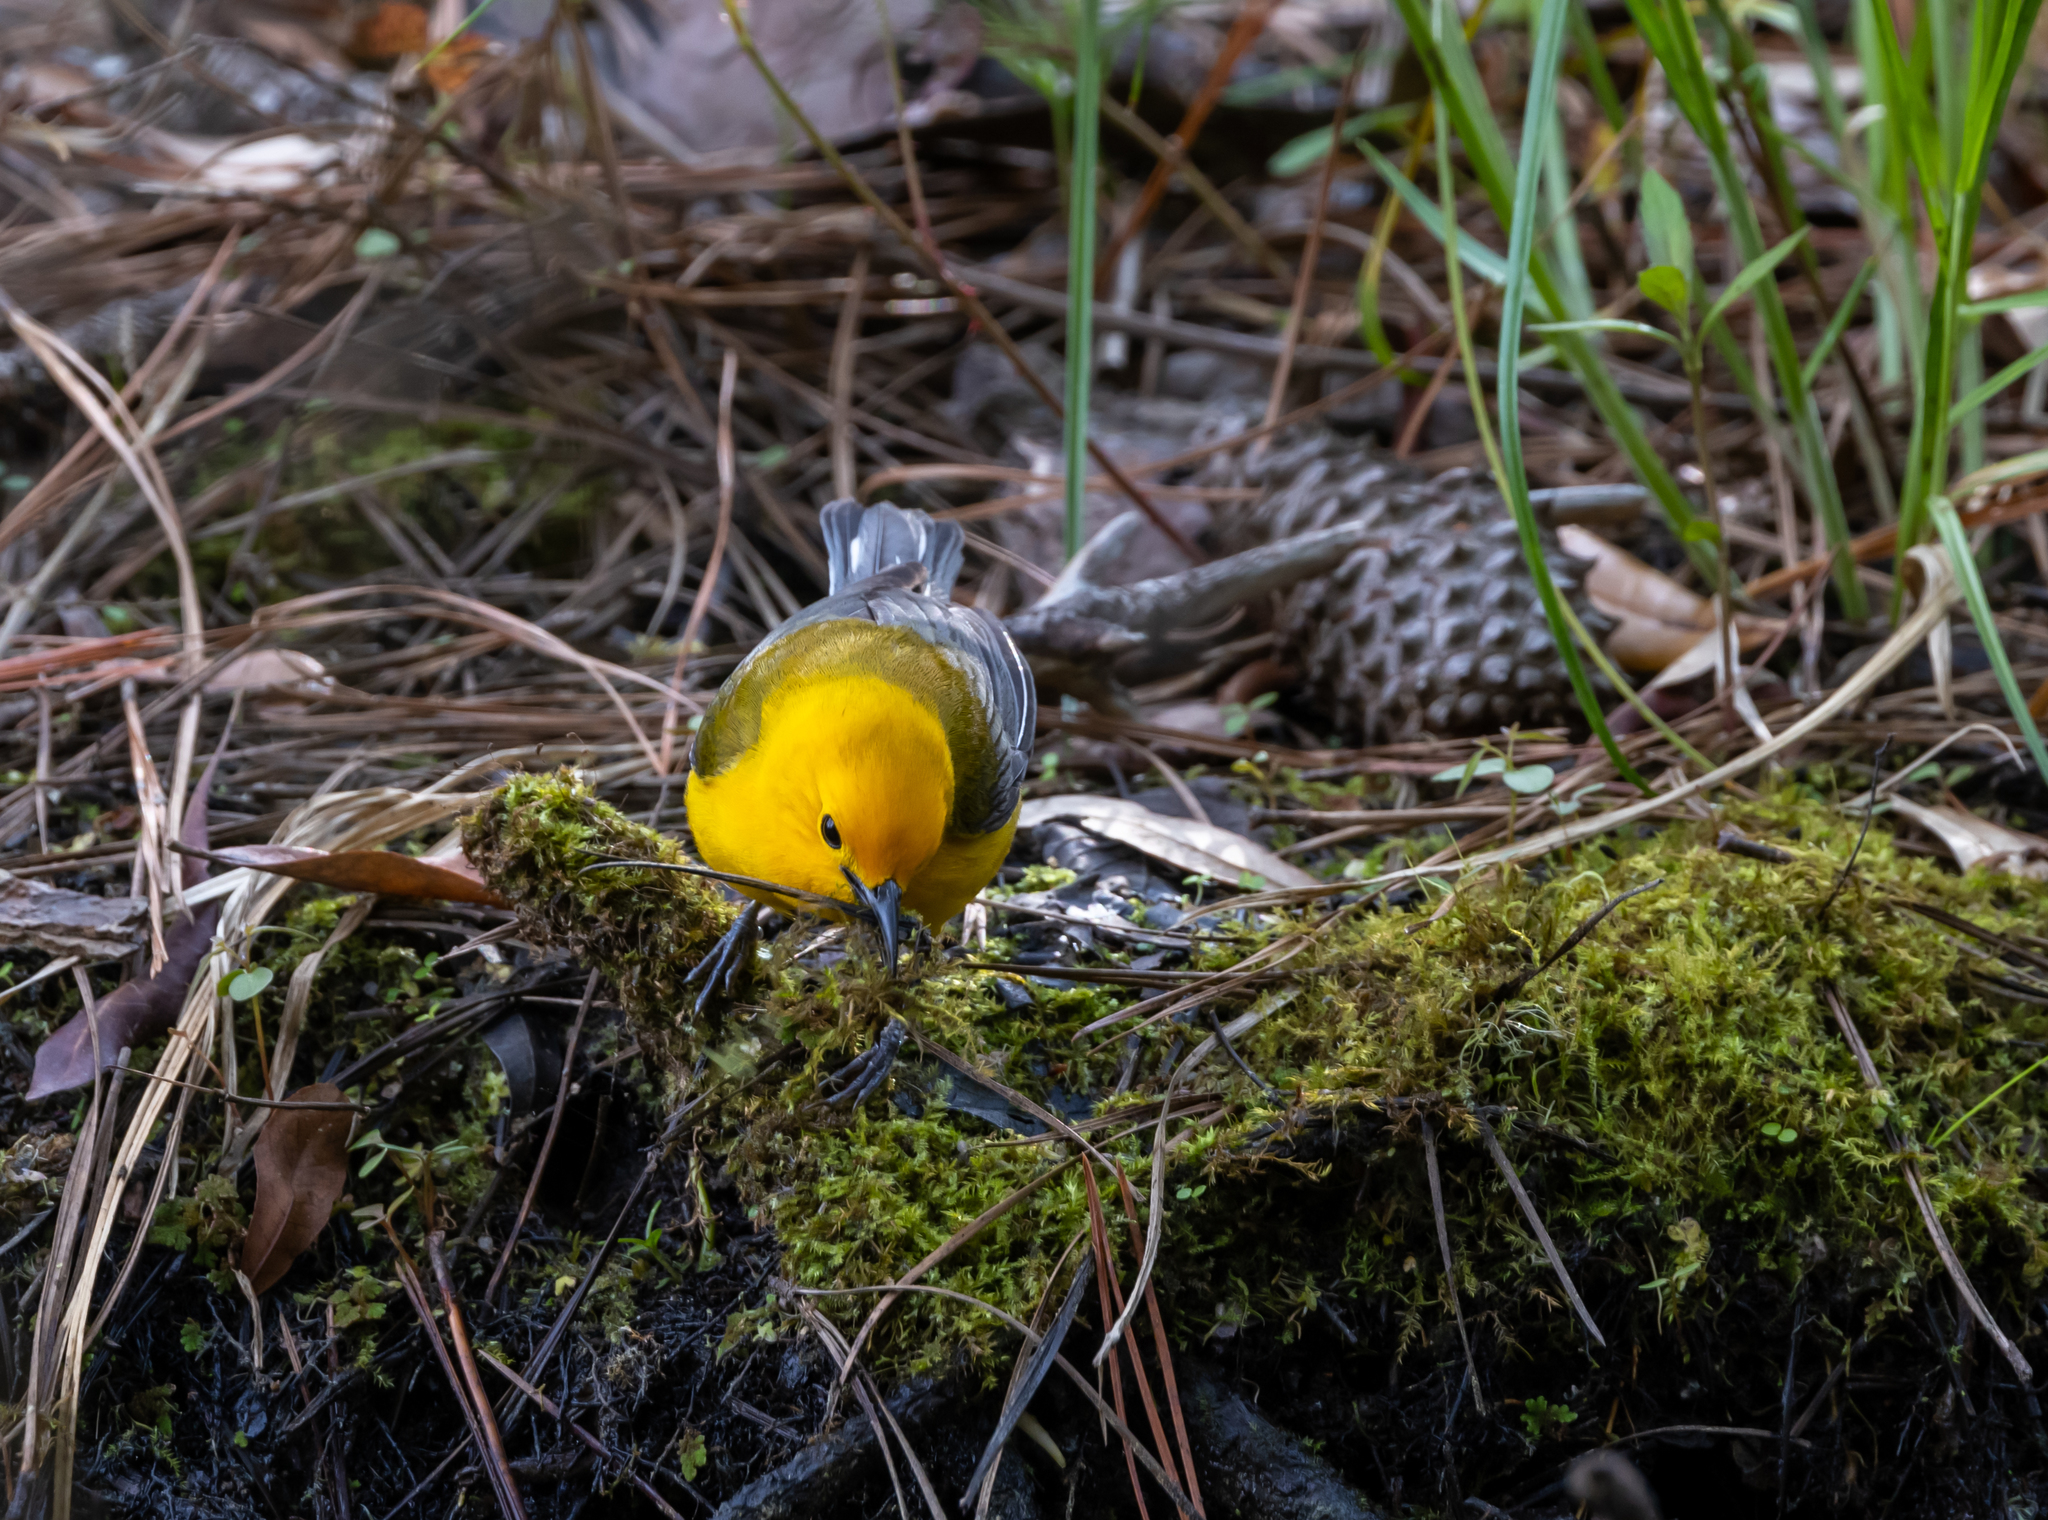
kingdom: Animalia
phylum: Chordata
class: Aves
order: Passeriformes
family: Parulidae
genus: Protonotaria
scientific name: Protonotaria citrea
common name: Prothonotary warbler
